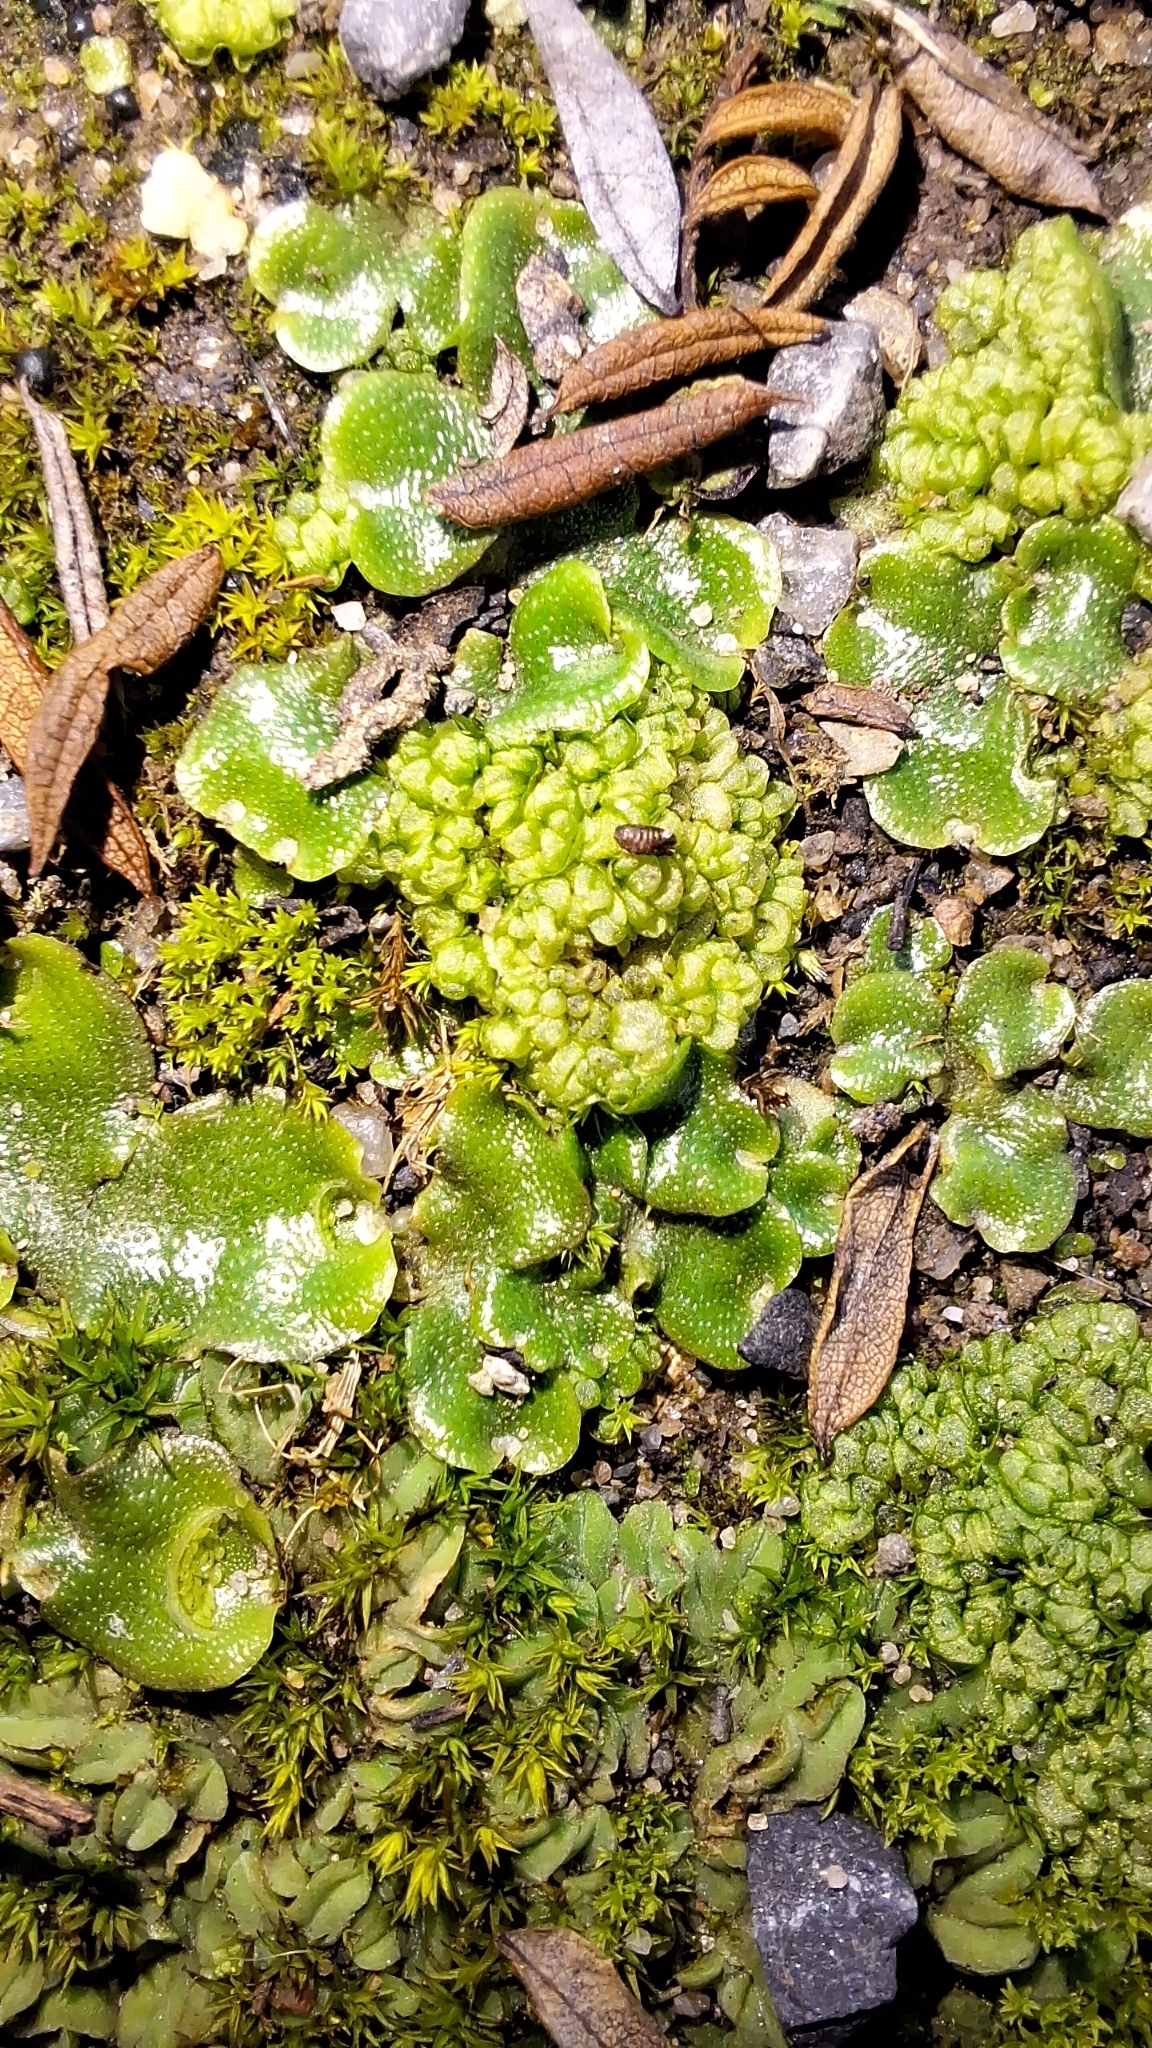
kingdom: Plantae
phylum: Marchantiophyta
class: Marchantiopsida
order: Sphaerocarpales
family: Sphaerocarpaceae
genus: Sphaerocarpos
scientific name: Sphaerocarpos texanus
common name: Texas balloonwort
